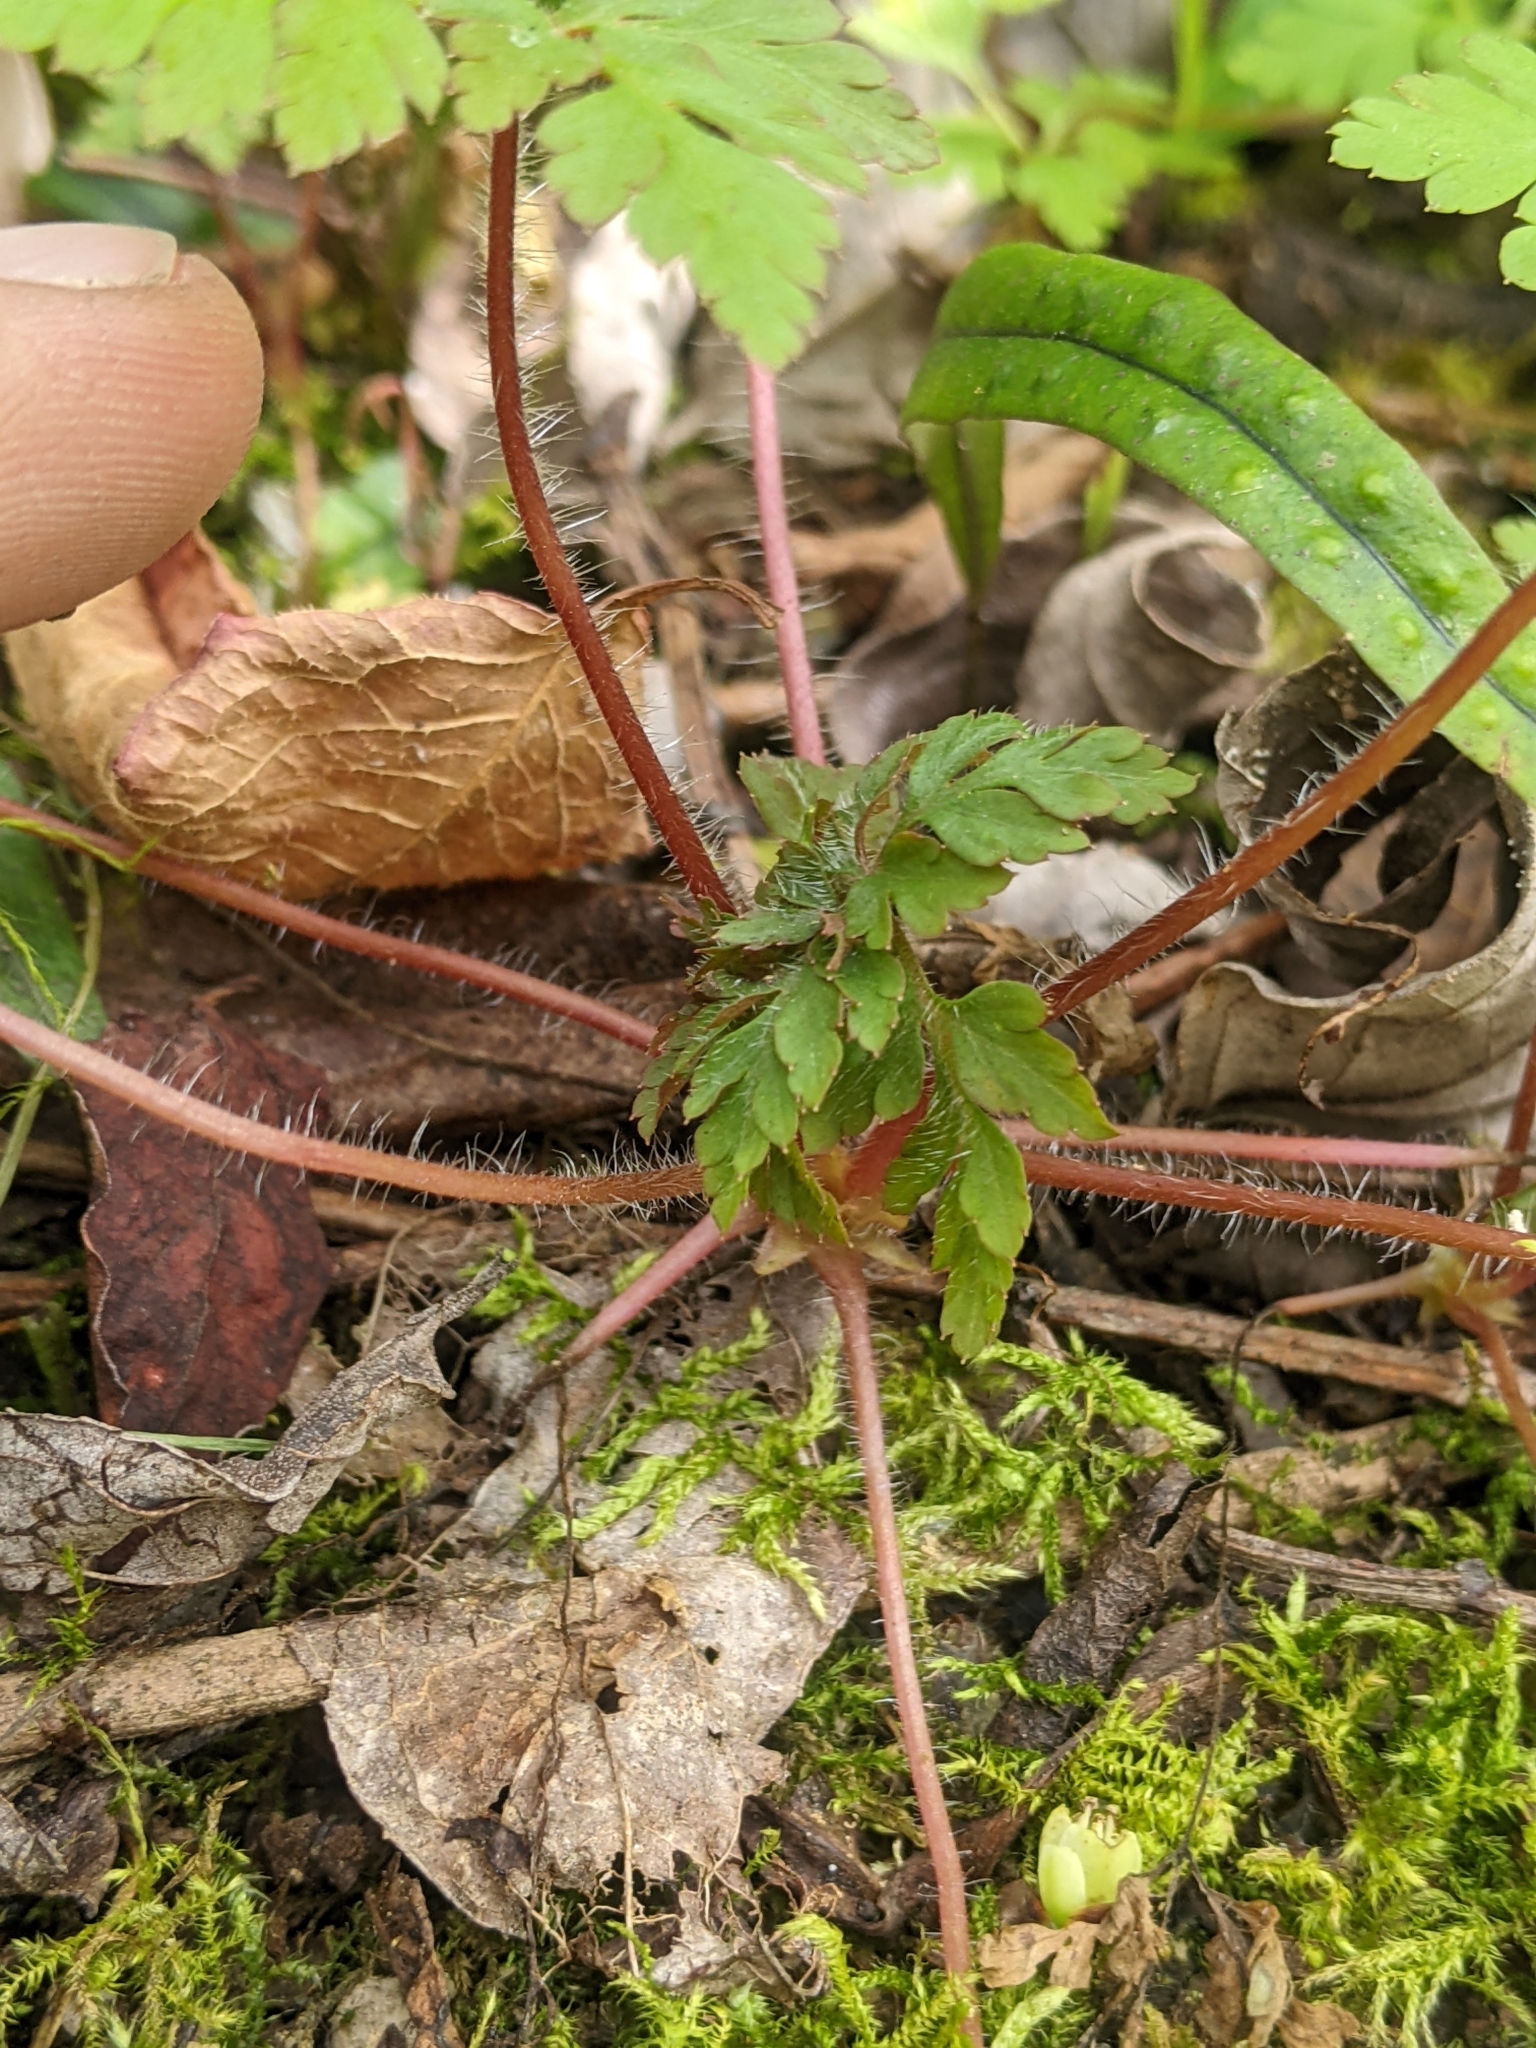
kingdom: Plantae
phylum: Tracheophyta
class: Magnoliopsida
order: Geraniales
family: Geraniaceae
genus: Geranium
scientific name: Geranium robertianum
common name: Herb-robert
